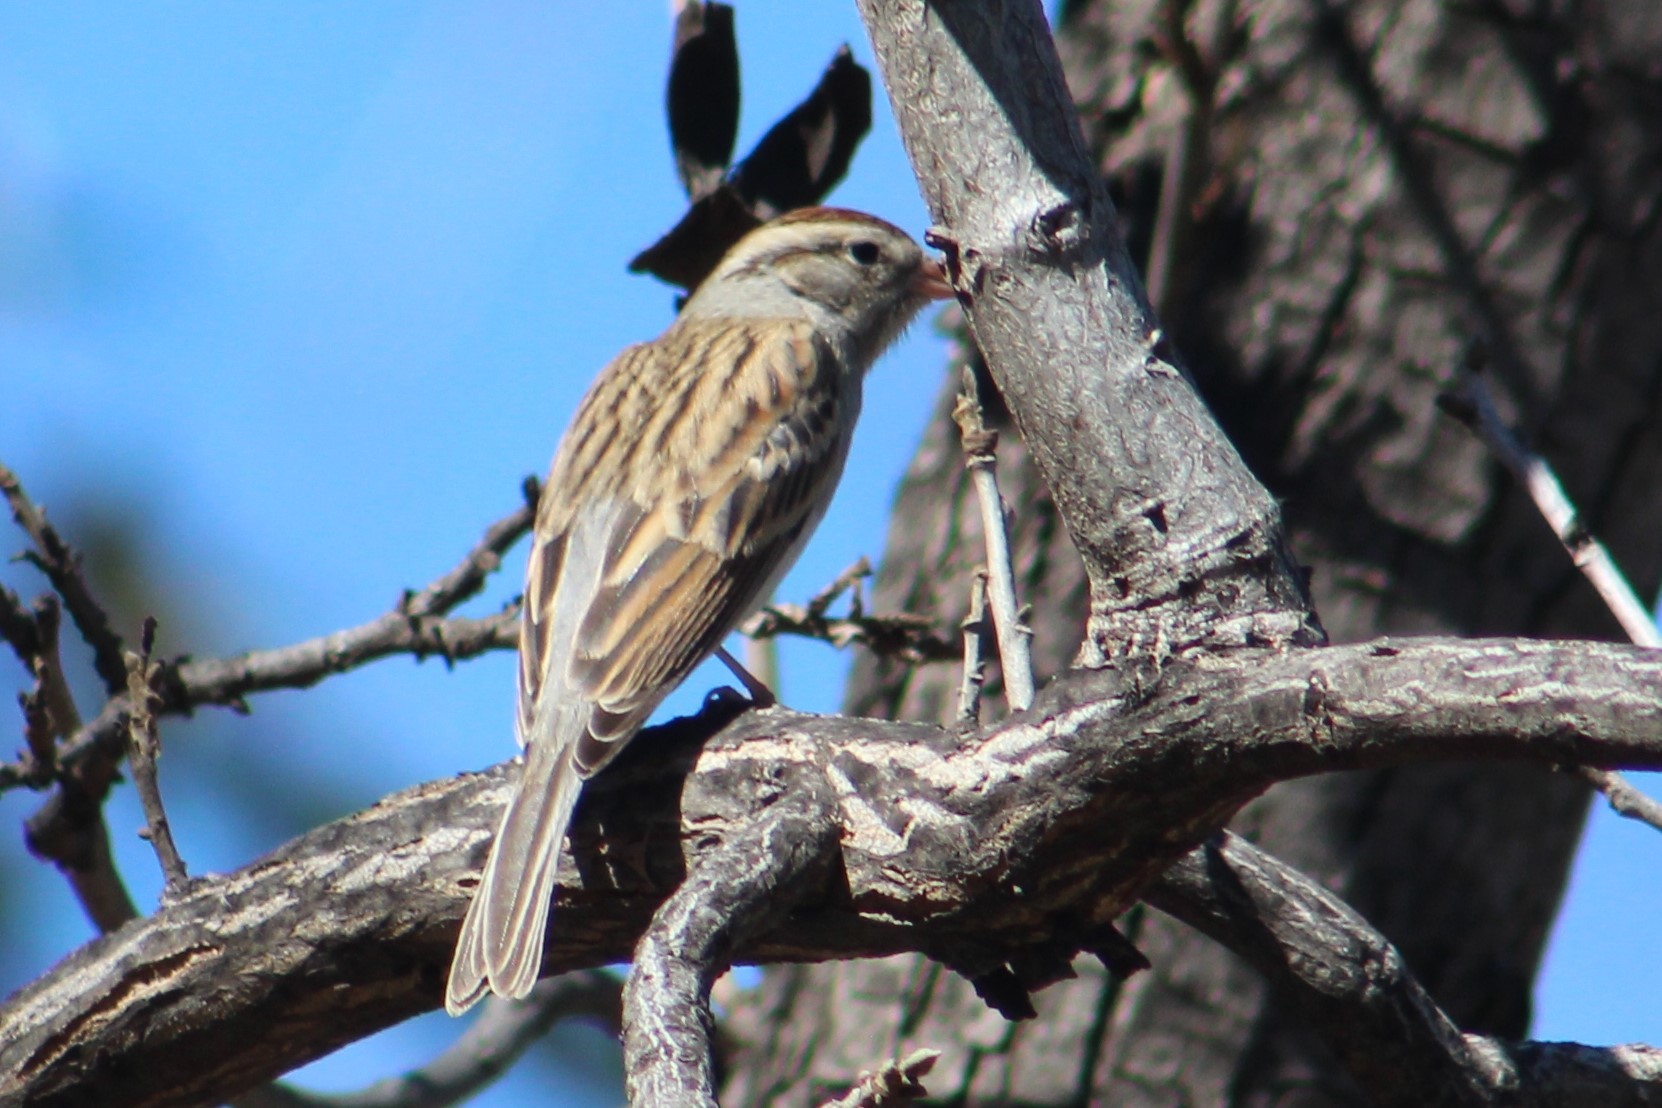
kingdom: Animalia
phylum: Chordata
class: Aves
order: Passeriformes
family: Passerellidae
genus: Spizella
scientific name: Spizella passerina
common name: Chipping sparrow
